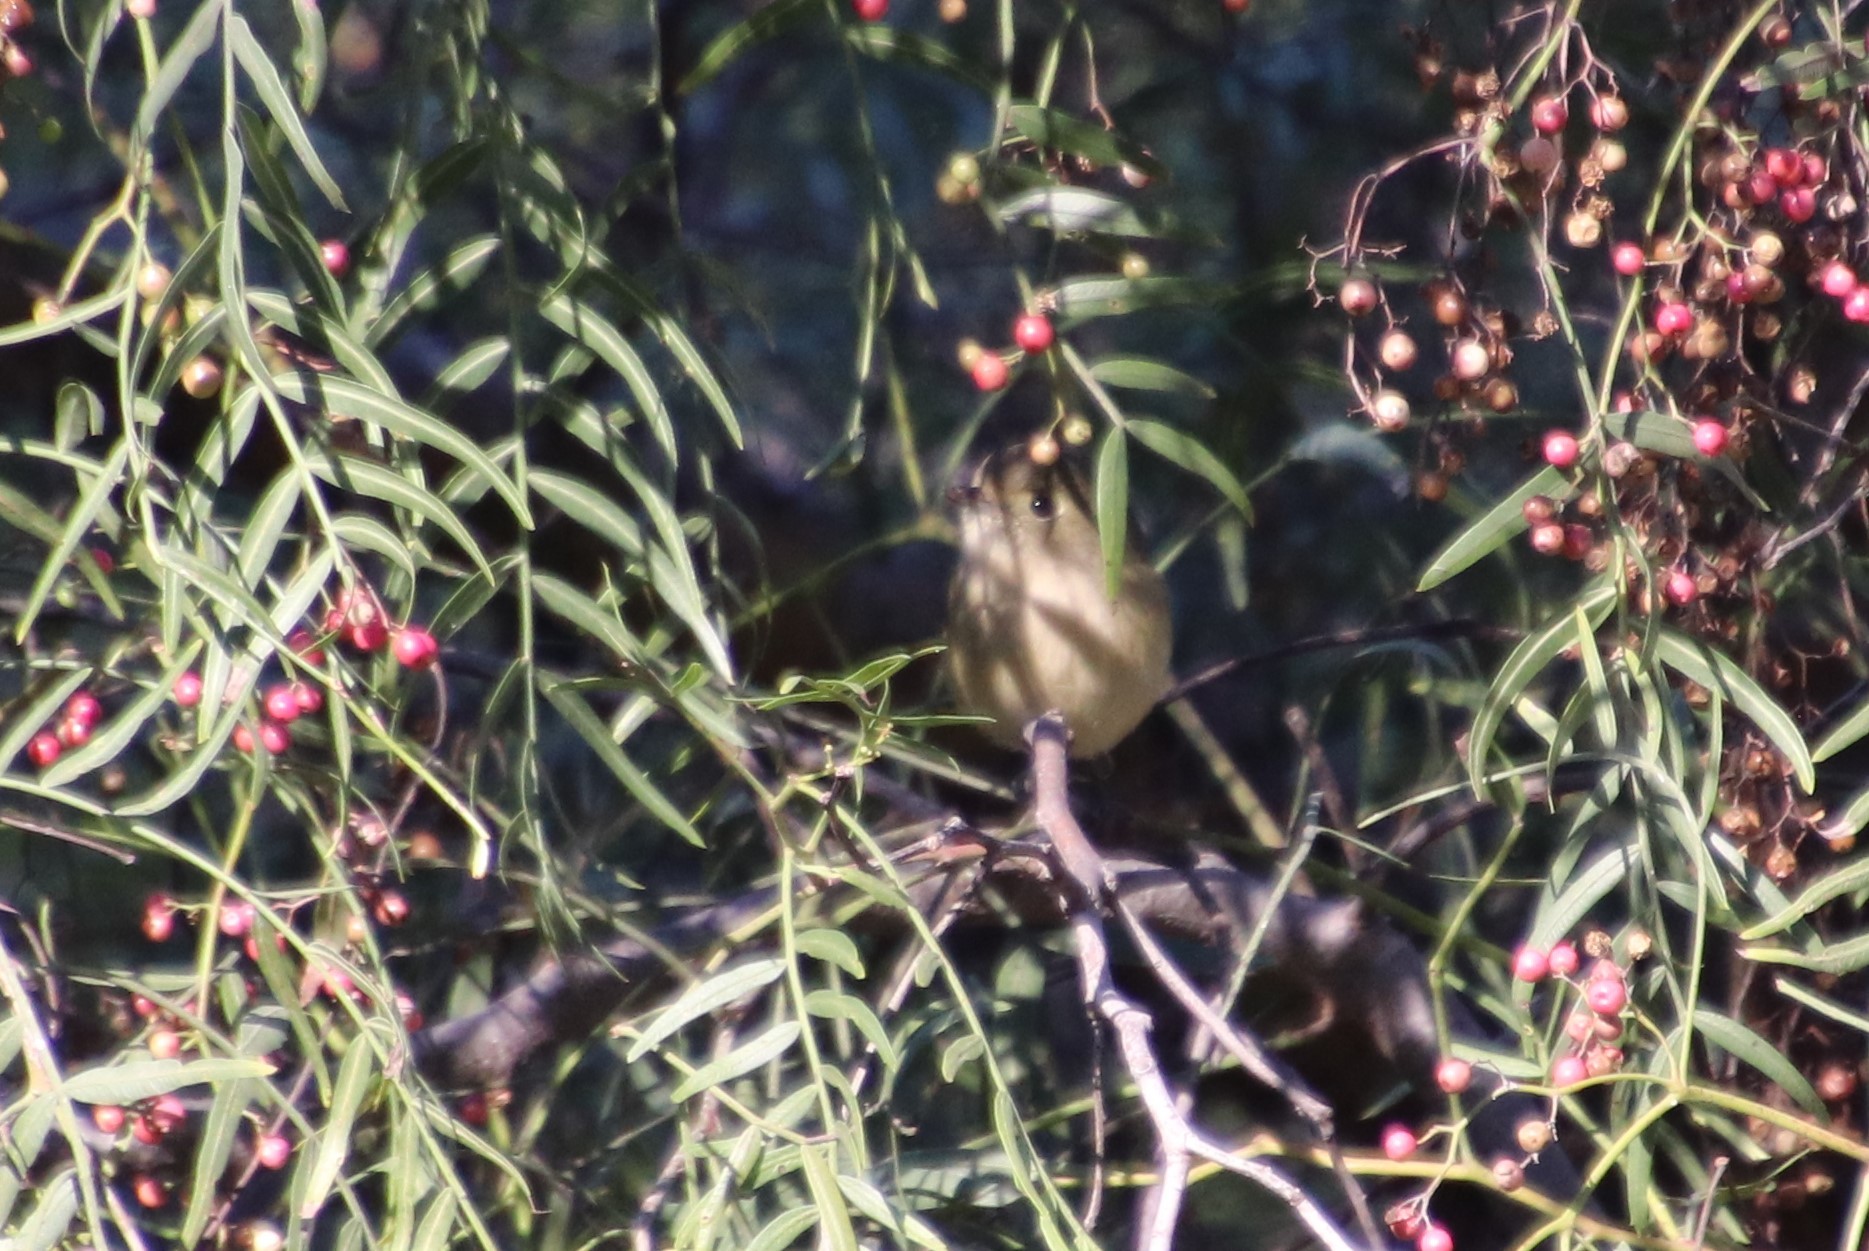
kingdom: Animalia
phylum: Chordata
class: Aves
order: Passeriformes
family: Vireonidae
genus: Vireo
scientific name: Vireo huttoni
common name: Hutton's vireo
